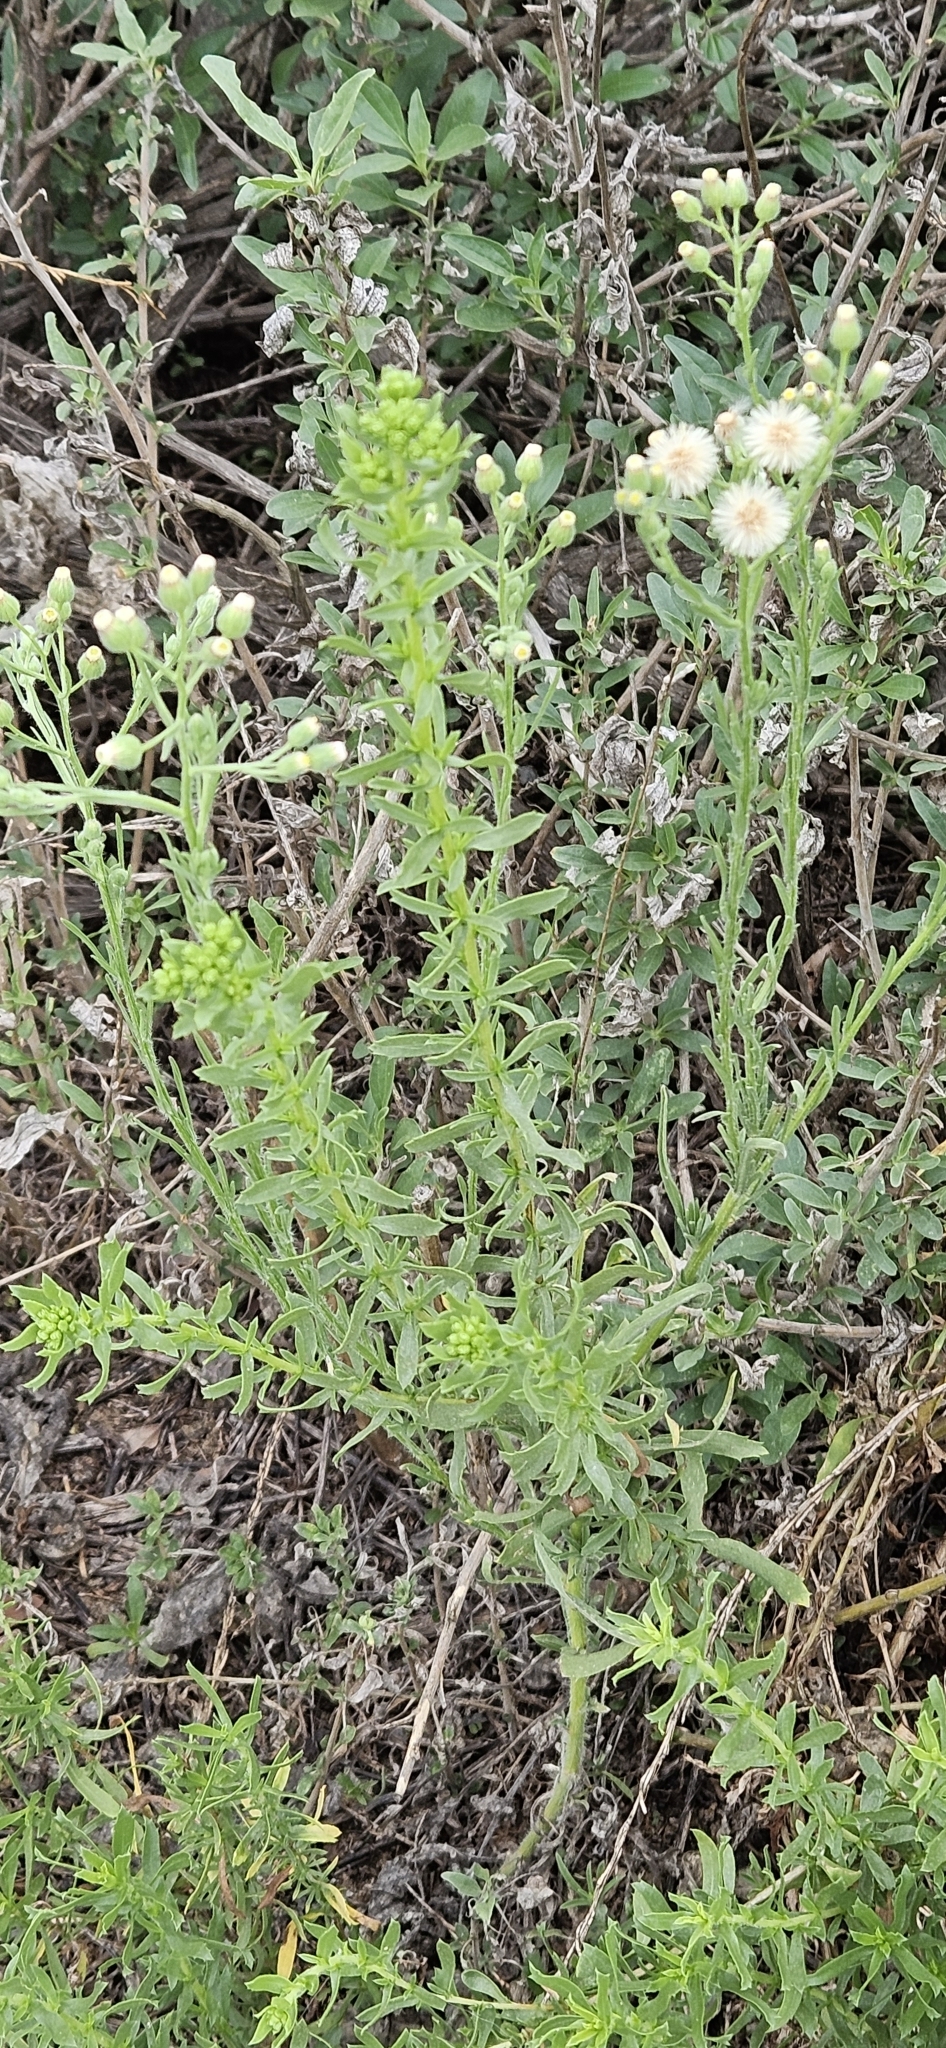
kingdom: Plantae
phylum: Tracheophyta
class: Magnoliopsida
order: Asterales
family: Asteraceae
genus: Erigeron
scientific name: Erigeron bonariensis
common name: Argentine fleabane
